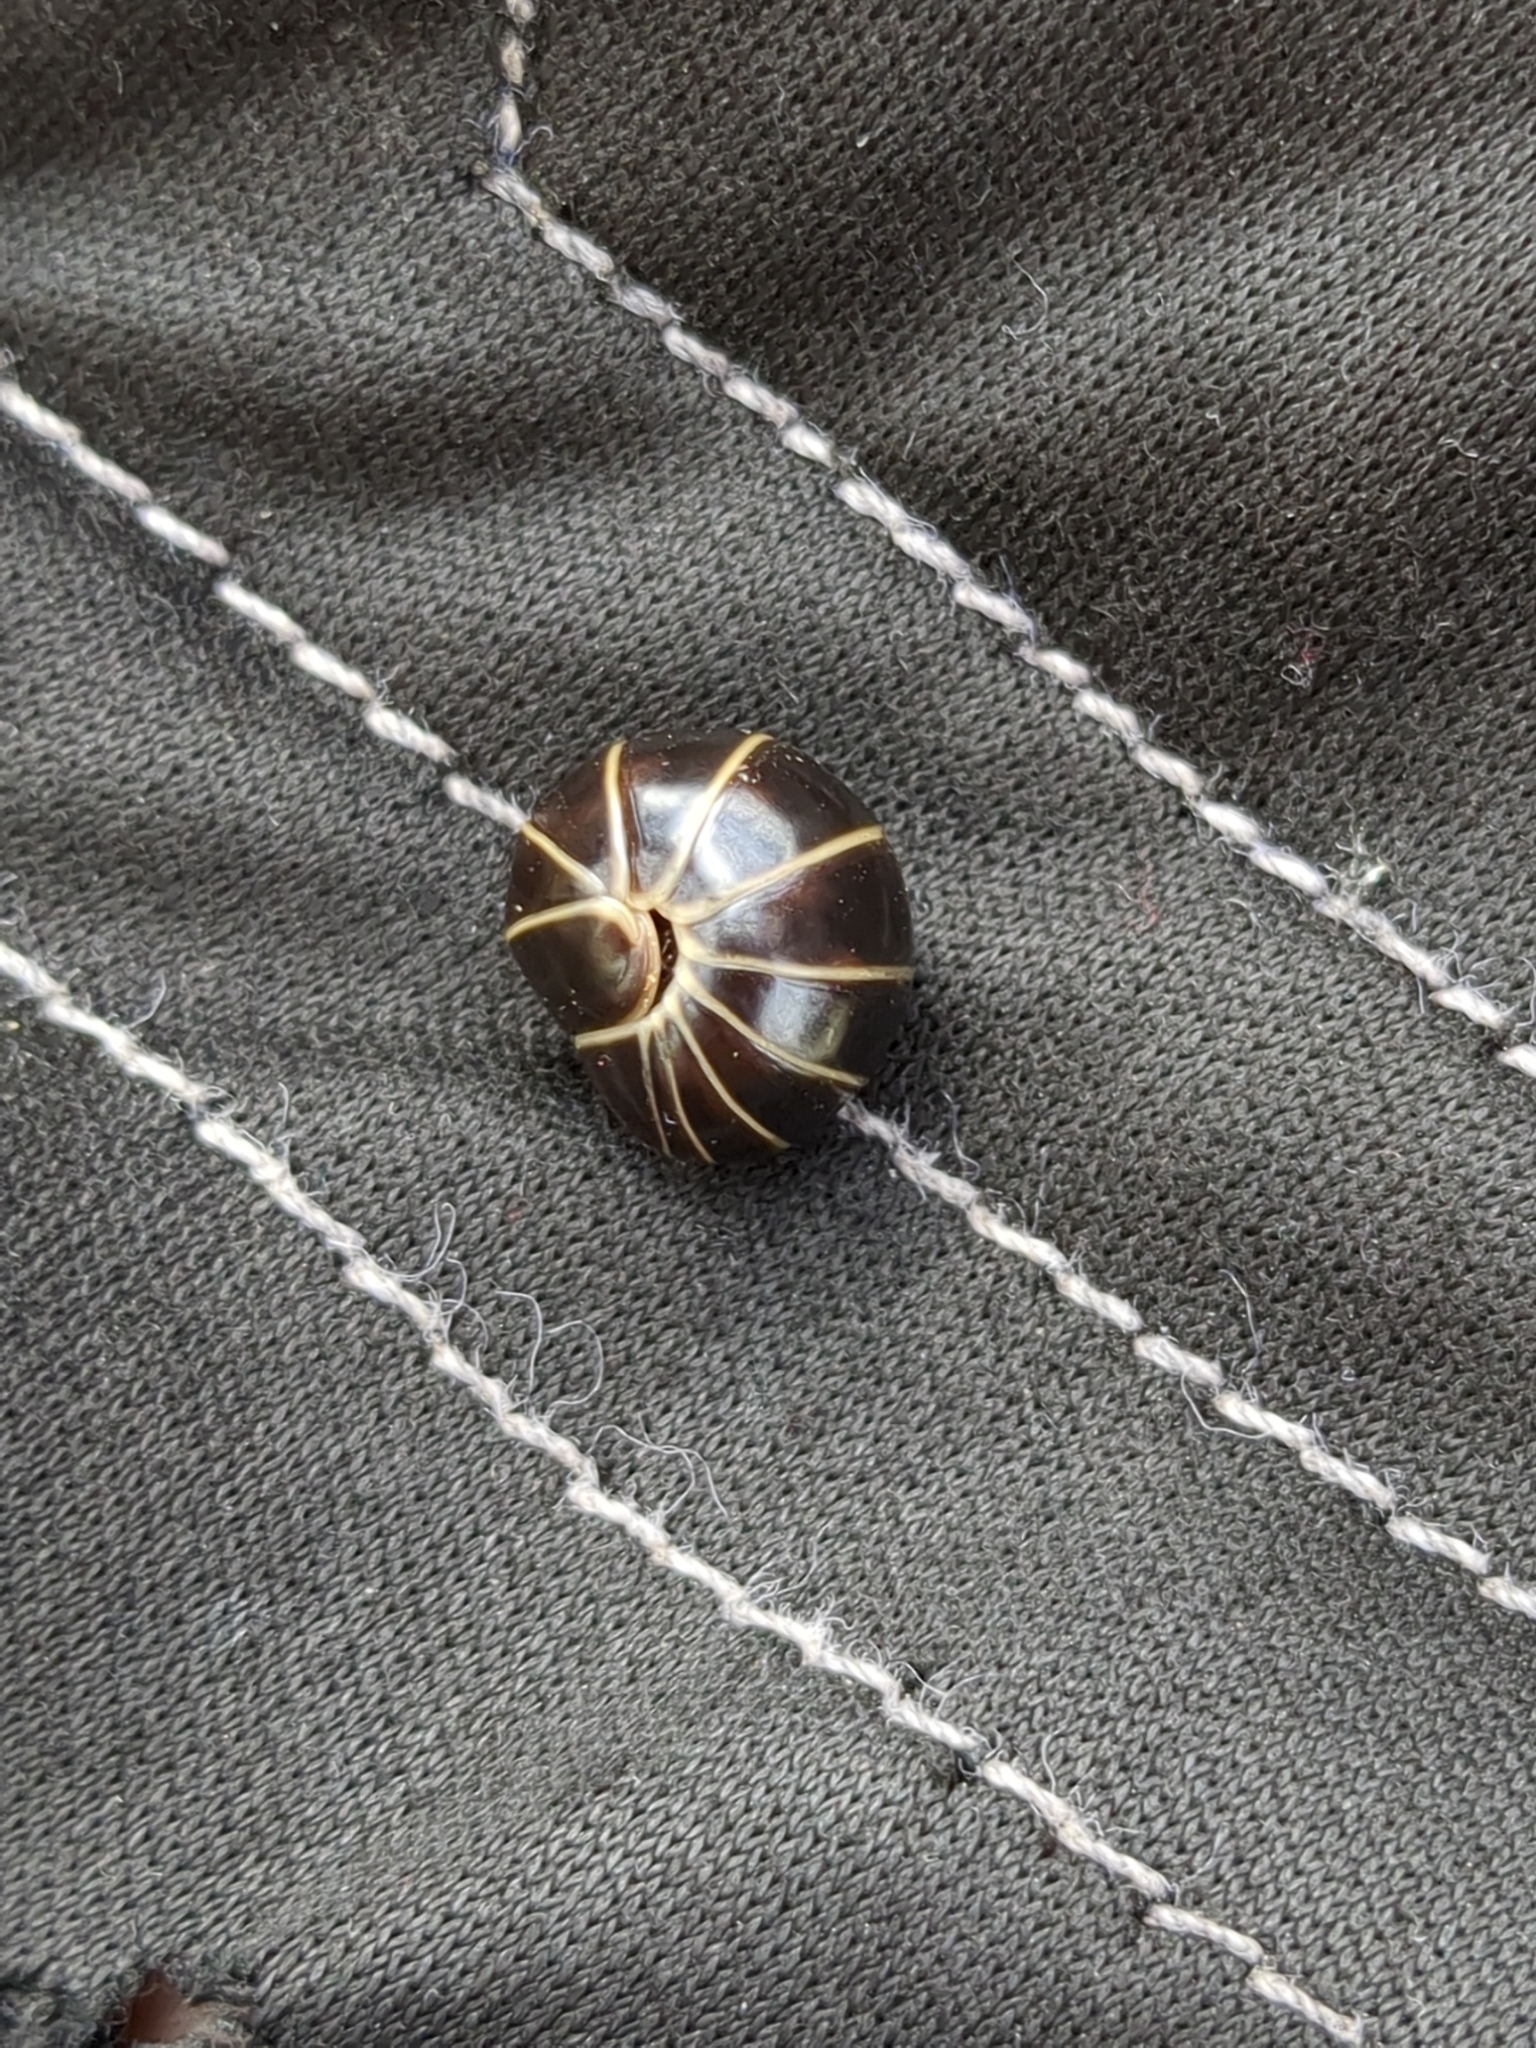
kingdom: Animalia
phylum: Arthropoda
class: Diplopoda
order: Glomerida
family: Glomeridae
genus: Glomeris
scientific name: Glomeris marginata
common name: Bordered pill millipede
